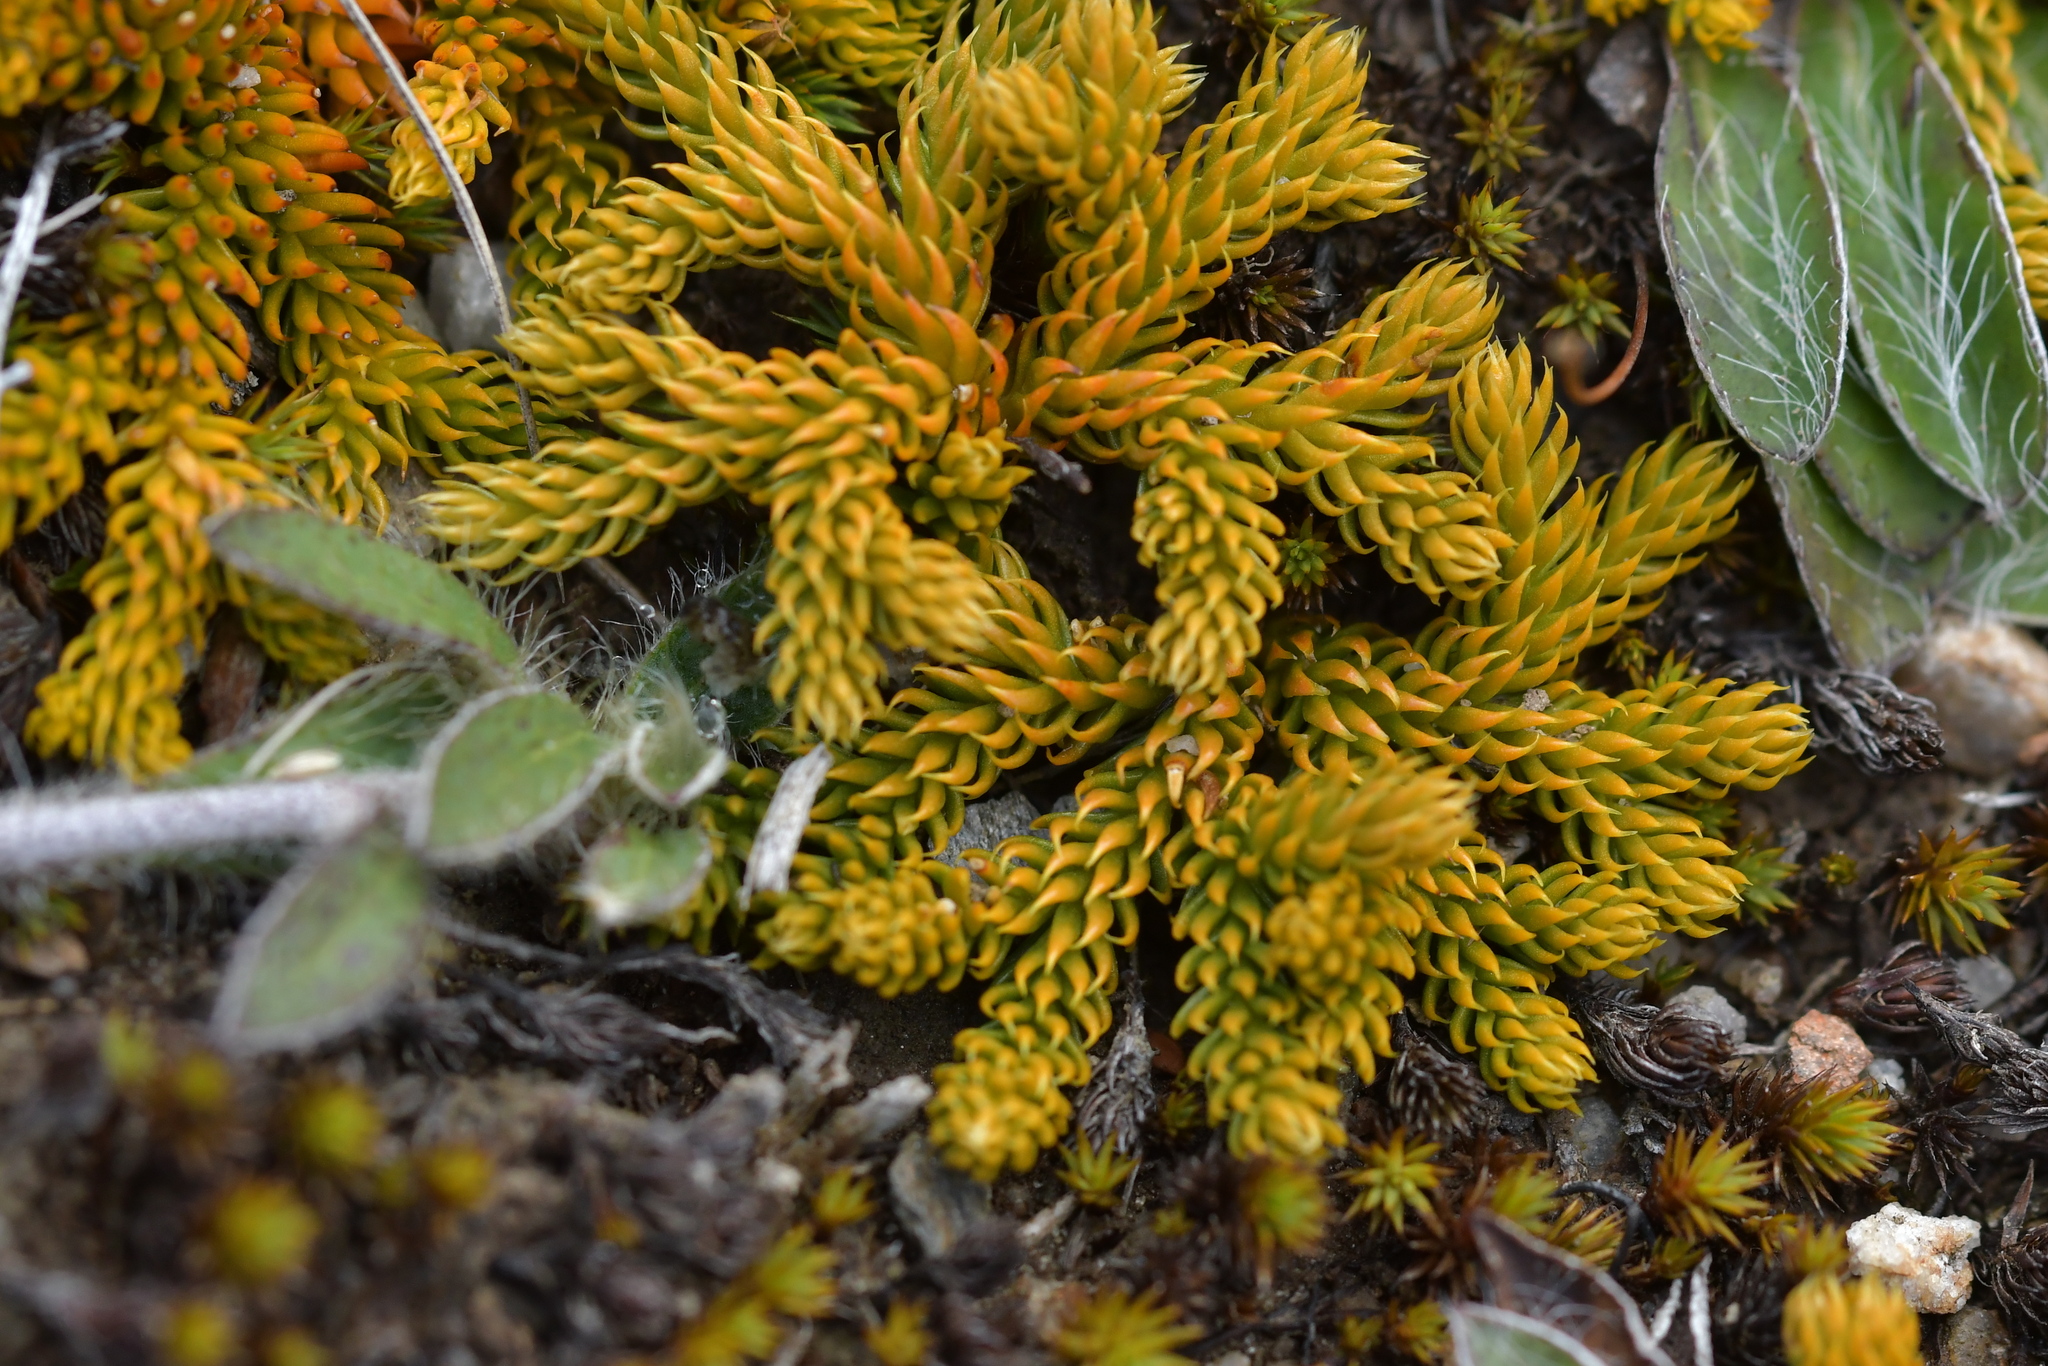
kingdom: Plantae
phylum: Tracheophyta
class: Lycopodiopsida
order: Lycopodiales
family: Lycopodiaceae
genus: Austrolycopodium
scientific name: Austrolycopodium fastigiatum
